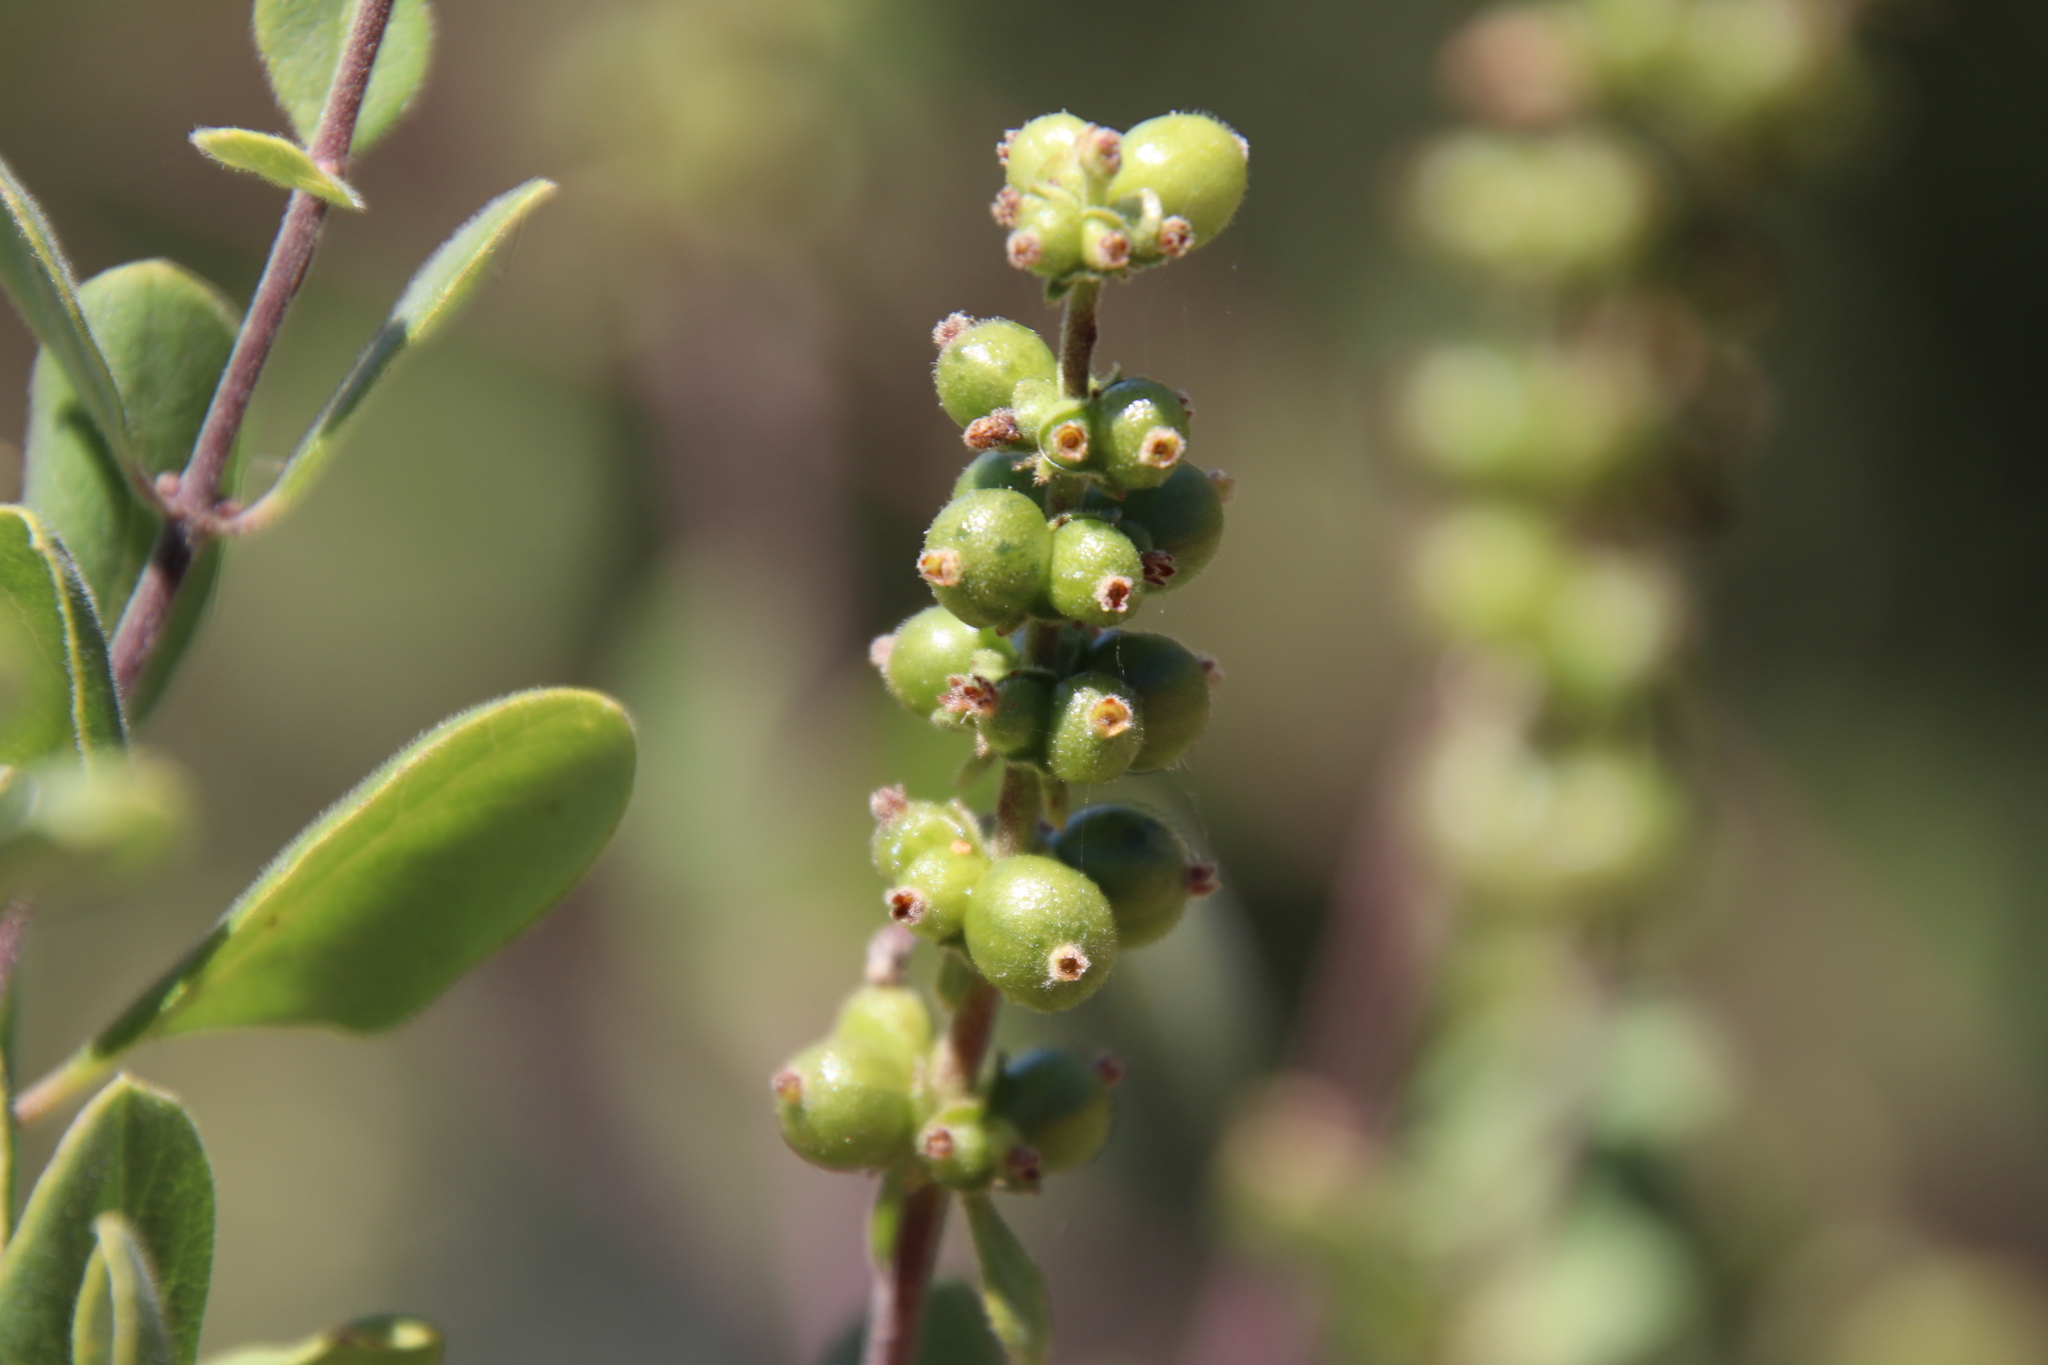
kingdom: Plantae
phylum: Tracheophyta
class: Magnoliopsida
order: Dipsacales
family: Caprifoliaceae
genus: Lonicera
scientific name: Lonicera subspicata
